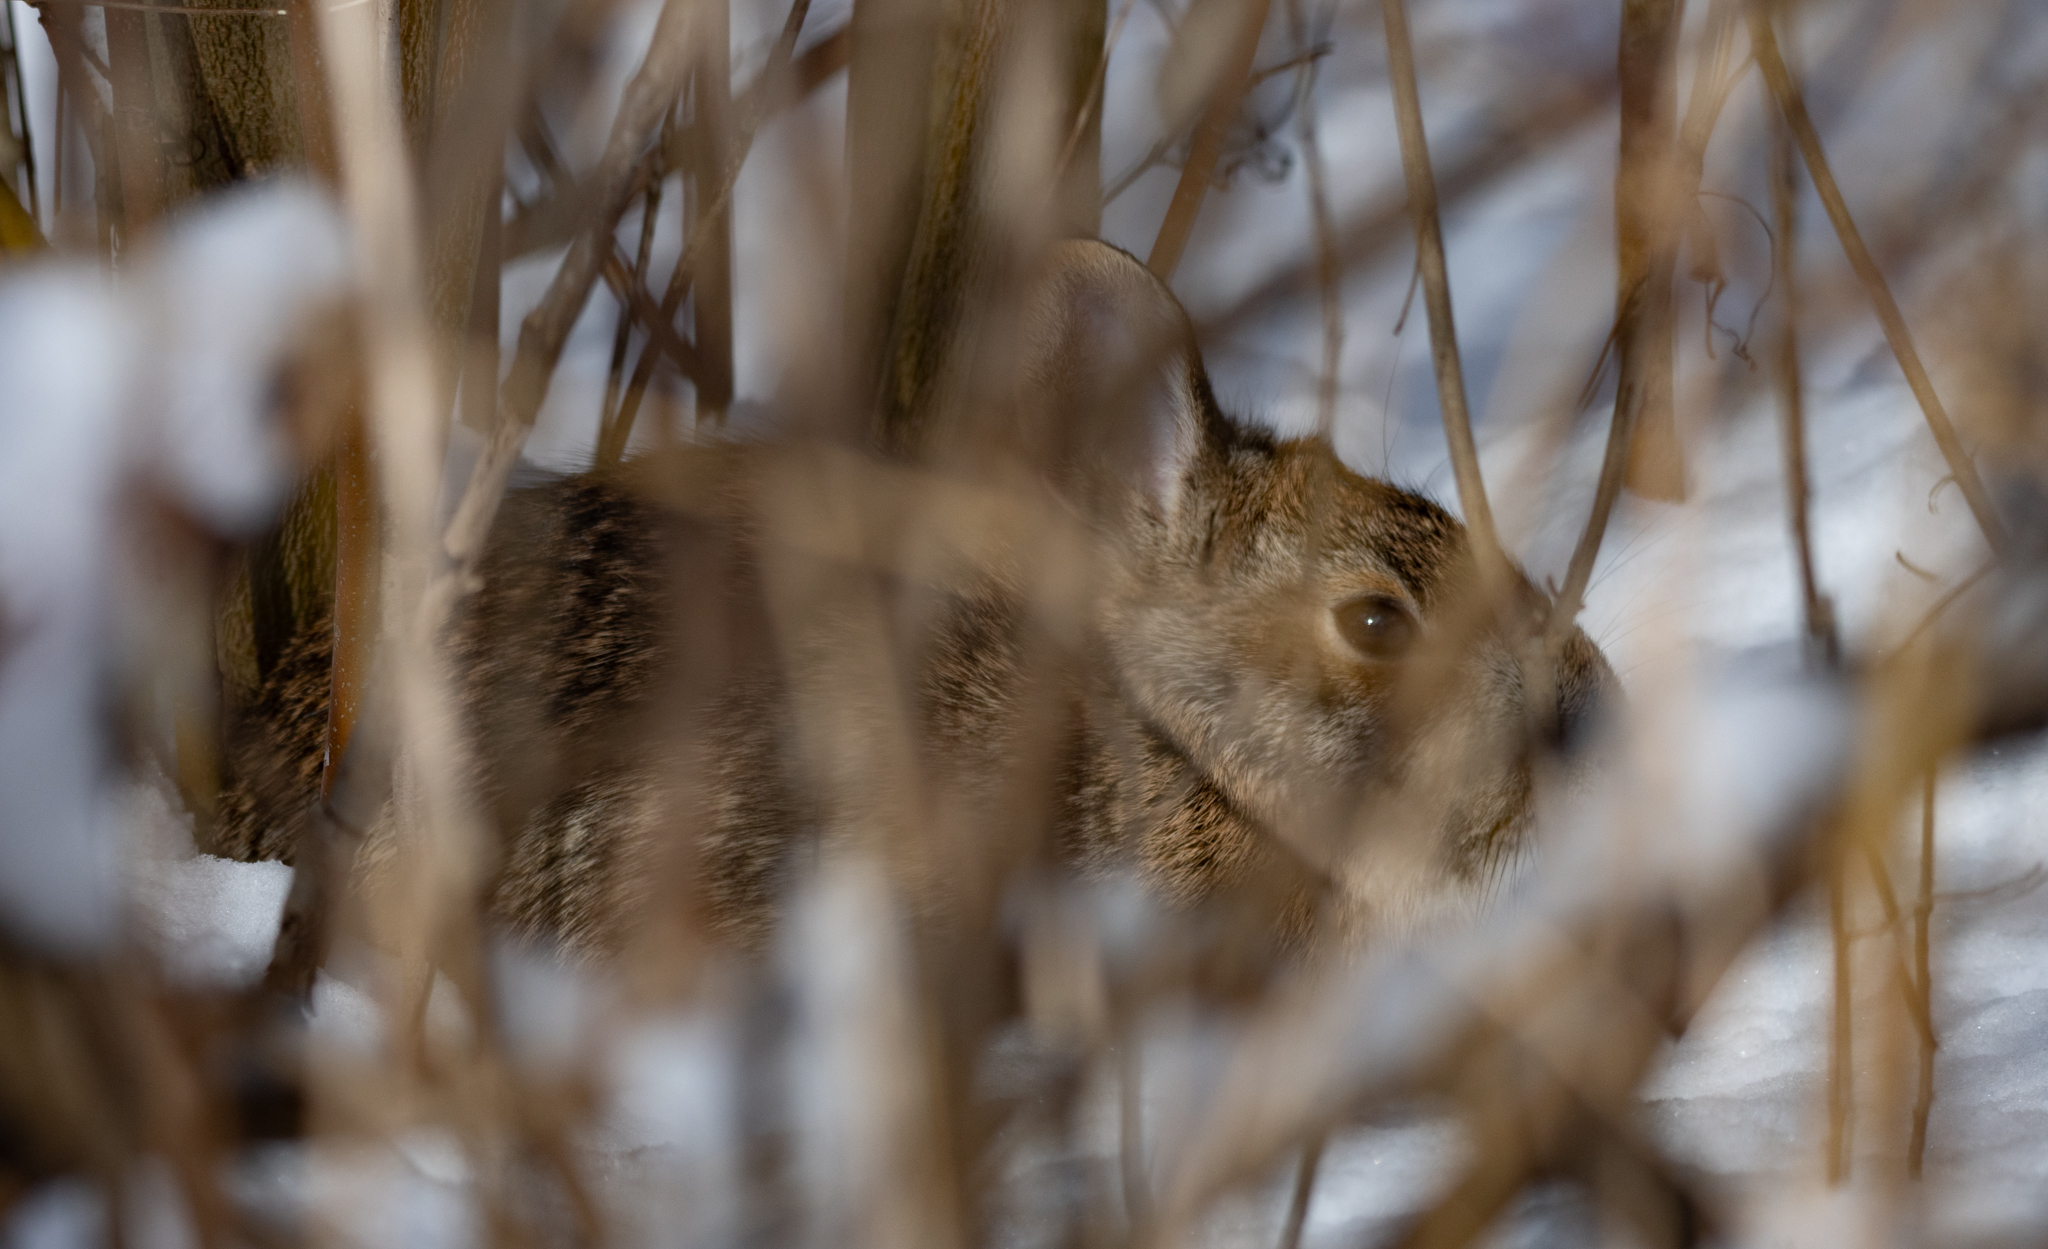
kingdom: Animalia
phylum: Chordata
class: Mammalia
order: Lagomorpha
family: Leporidae
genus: Sylvilagus
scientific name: Sylvilagus floridanus
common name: Eastern cottontail
